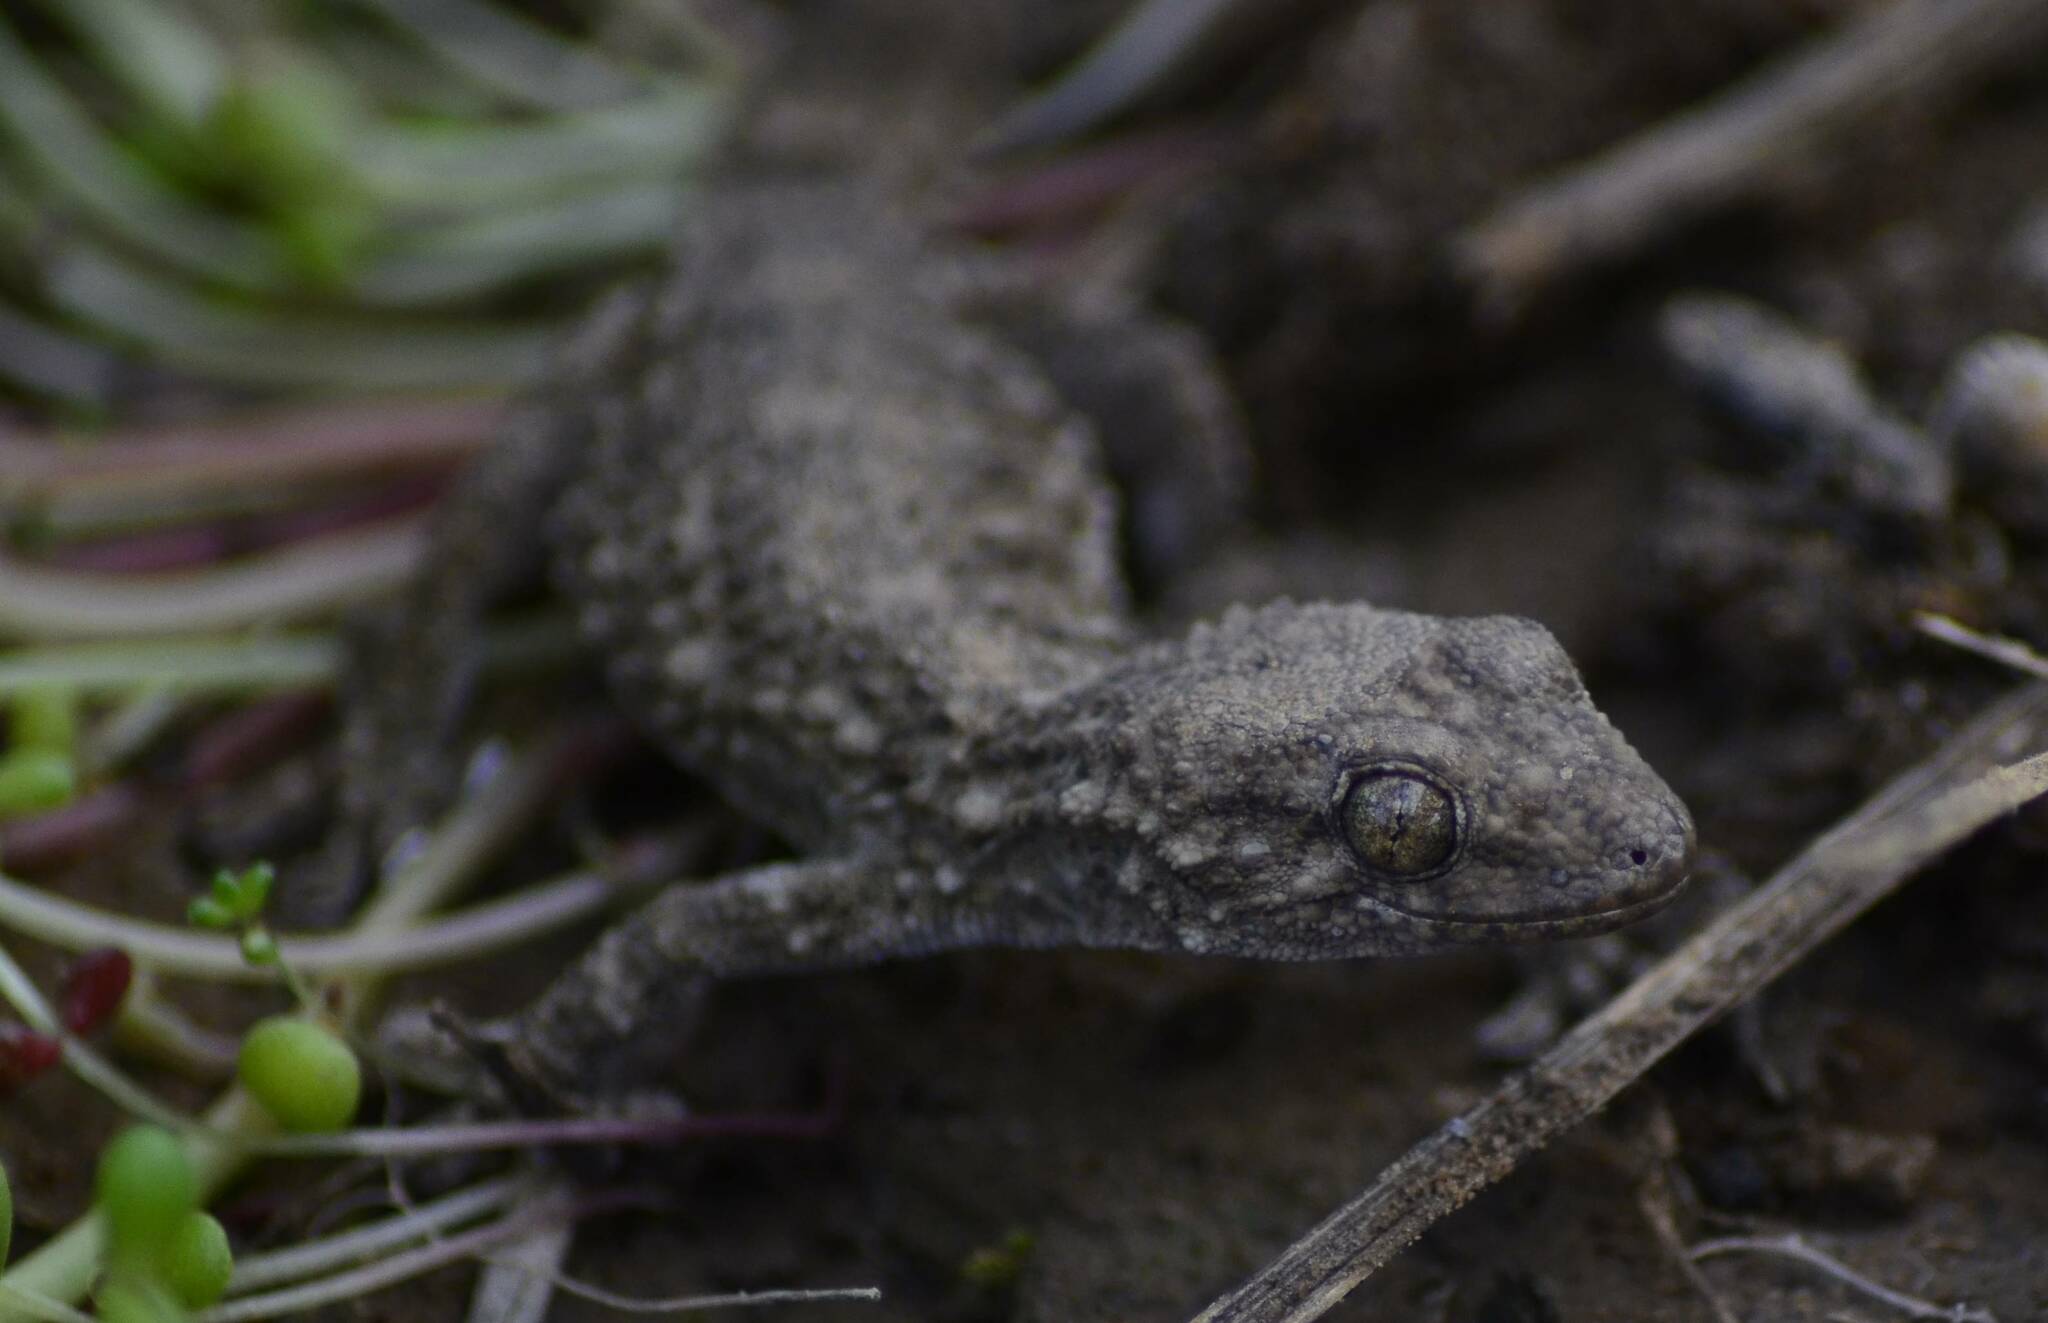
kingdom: Animalia
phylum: Chordata
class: Squamata
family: Phyllodactylidae
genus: Tarentola
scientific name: Tarentola mauritanica
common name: Moorish gecko
